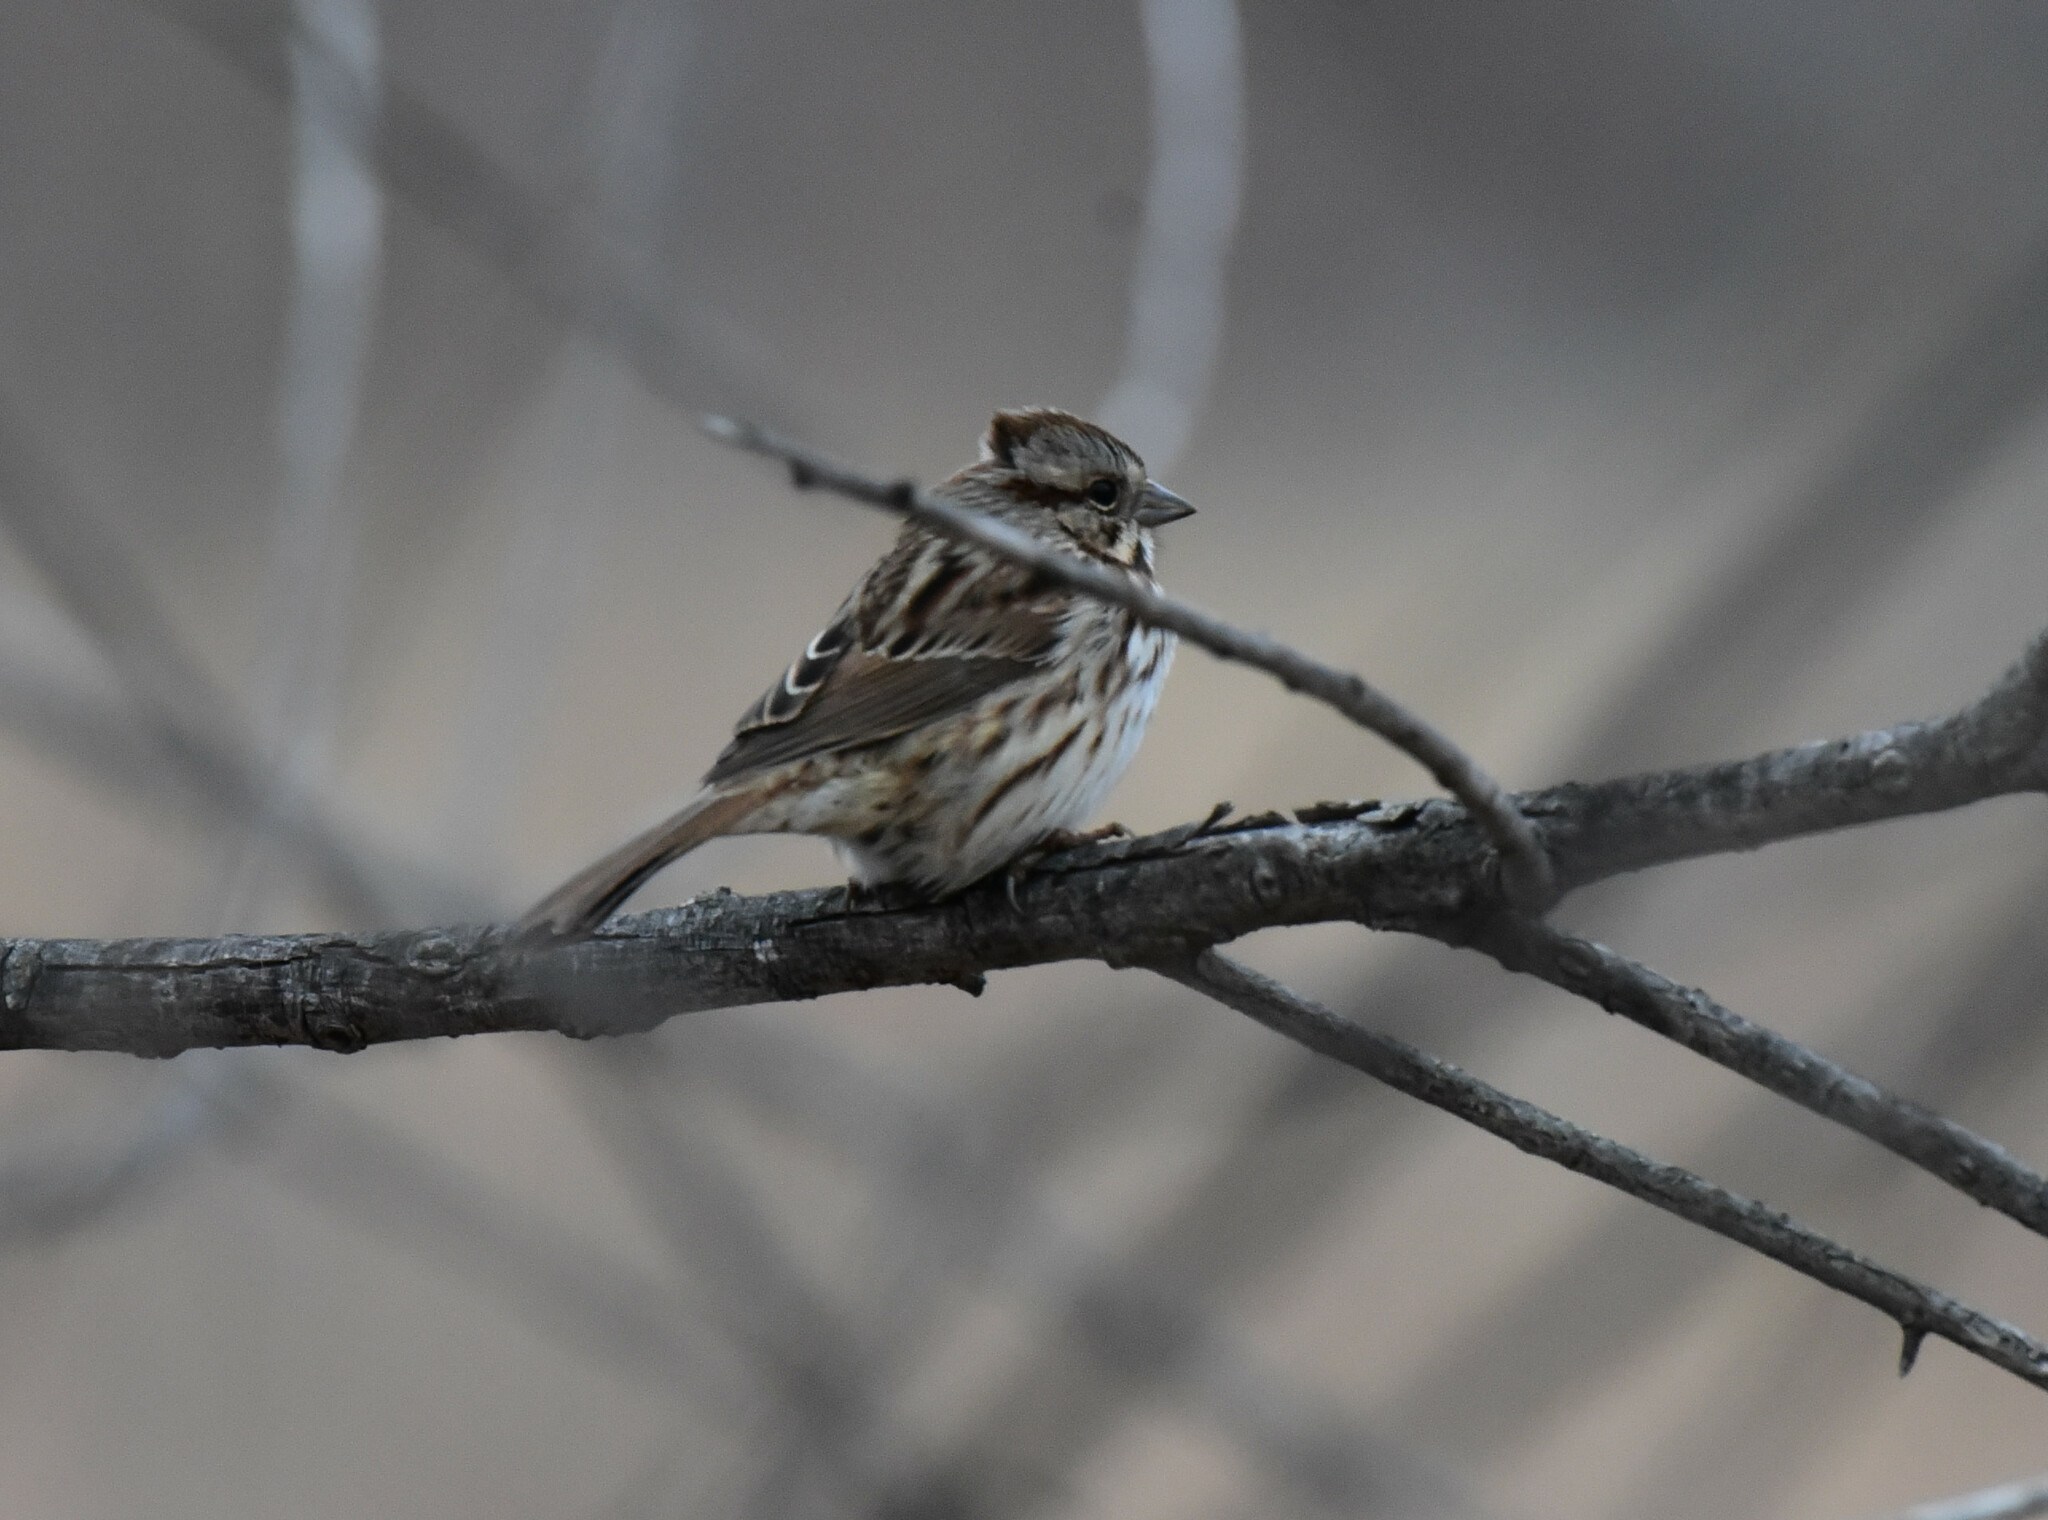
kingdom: Animalia
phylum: Chordata
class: Aves
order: Passeriformes
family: Passerellidae
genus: Melospiza
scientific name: Melospiza melodia
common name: Song sparrow
